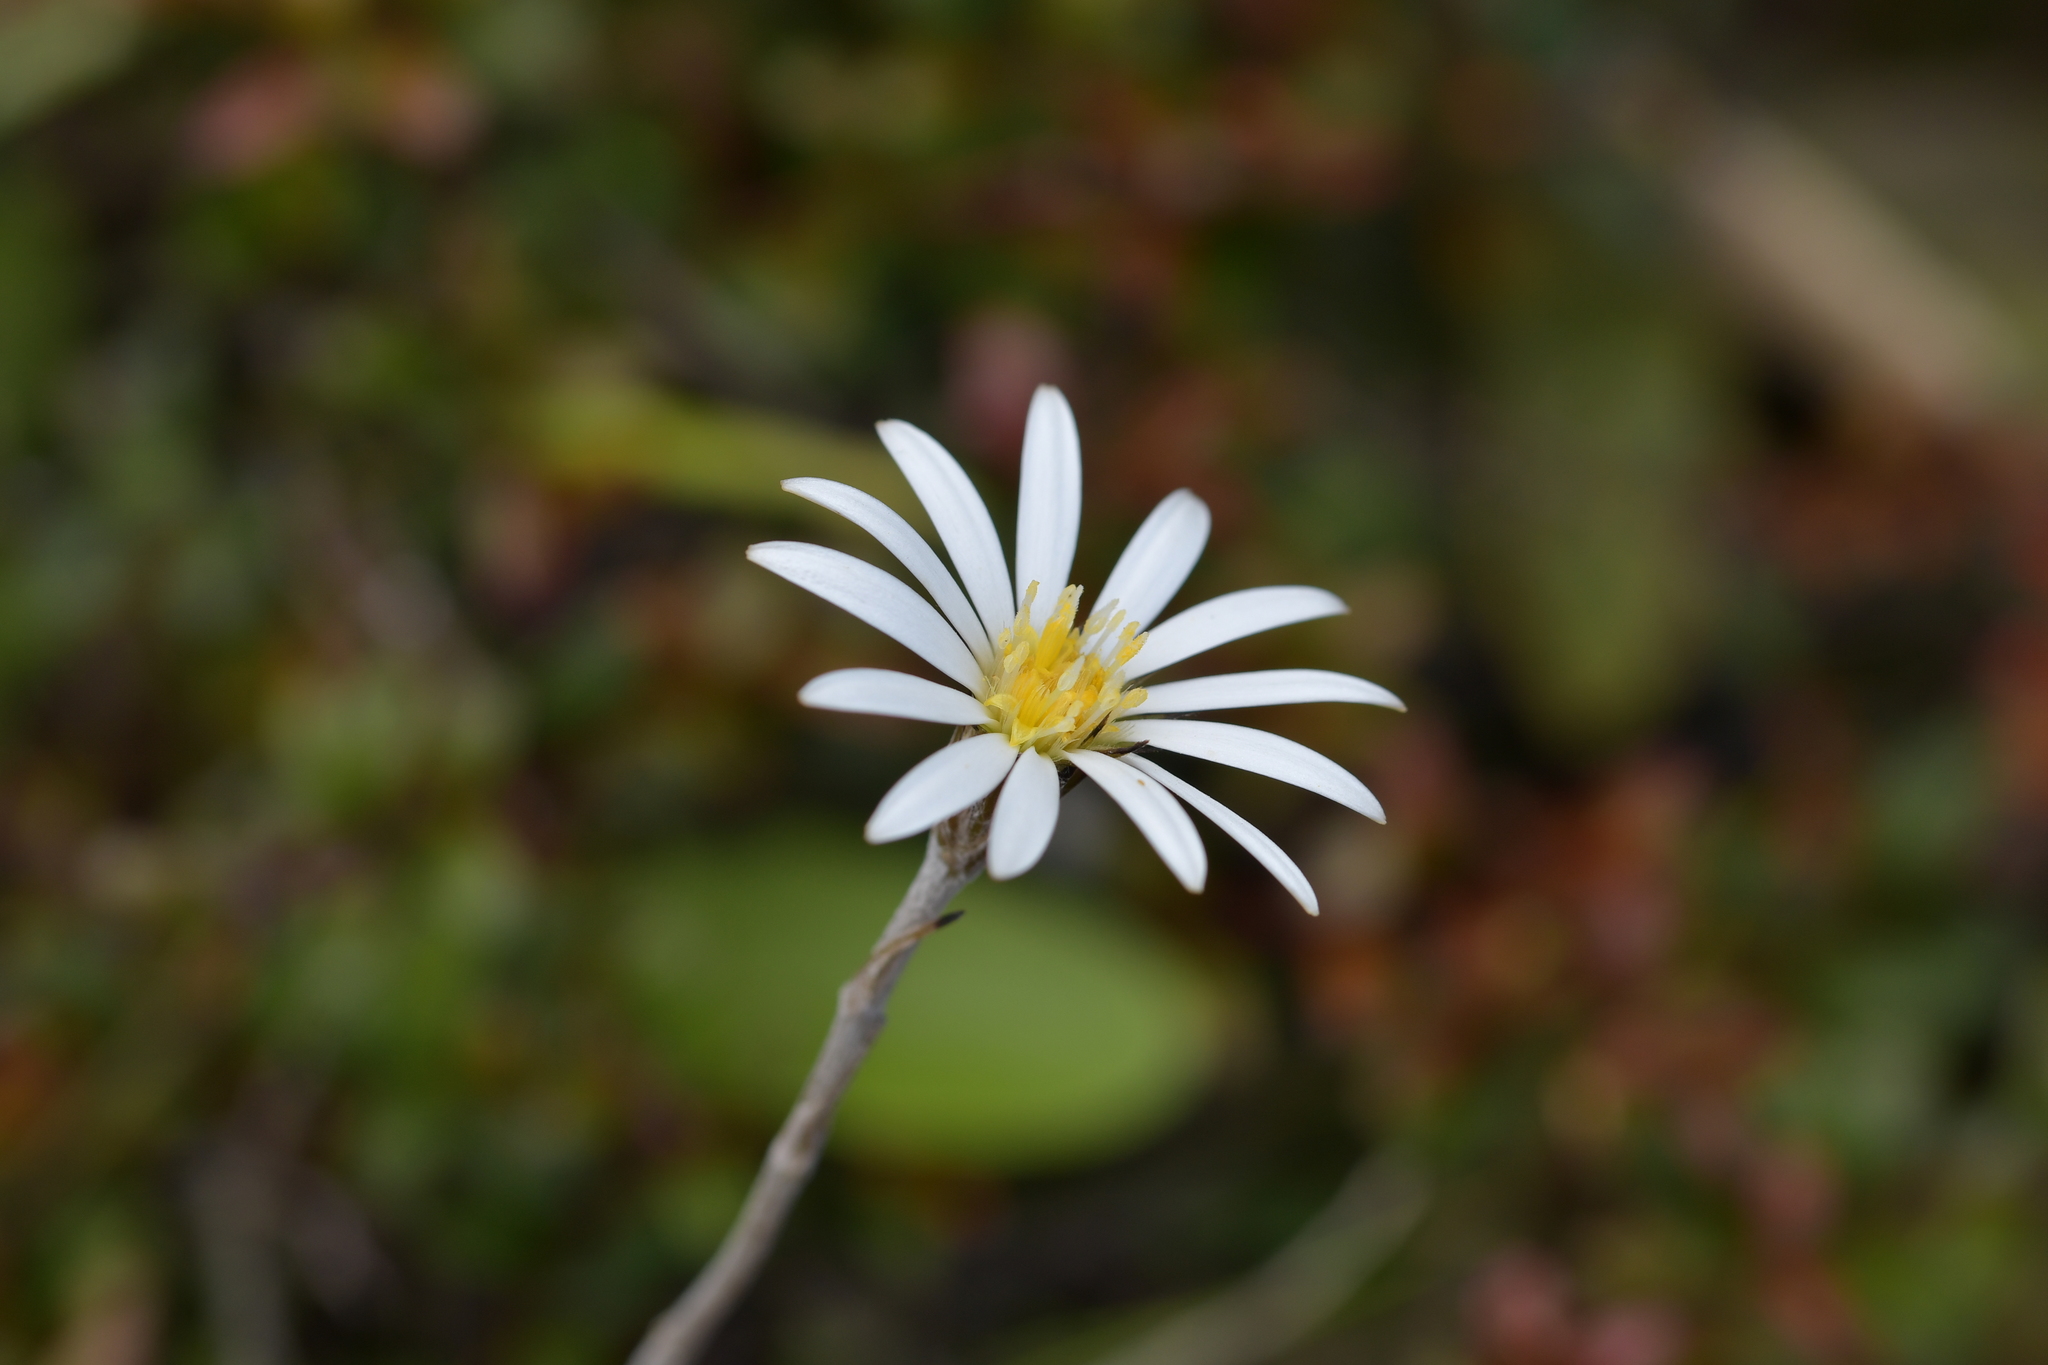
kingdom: Plantae
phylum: Tracheophyta
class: Magnoliopsida
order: Asterales
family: Asteraceae
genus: Celmisia
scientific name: Celmisia gracilenta
